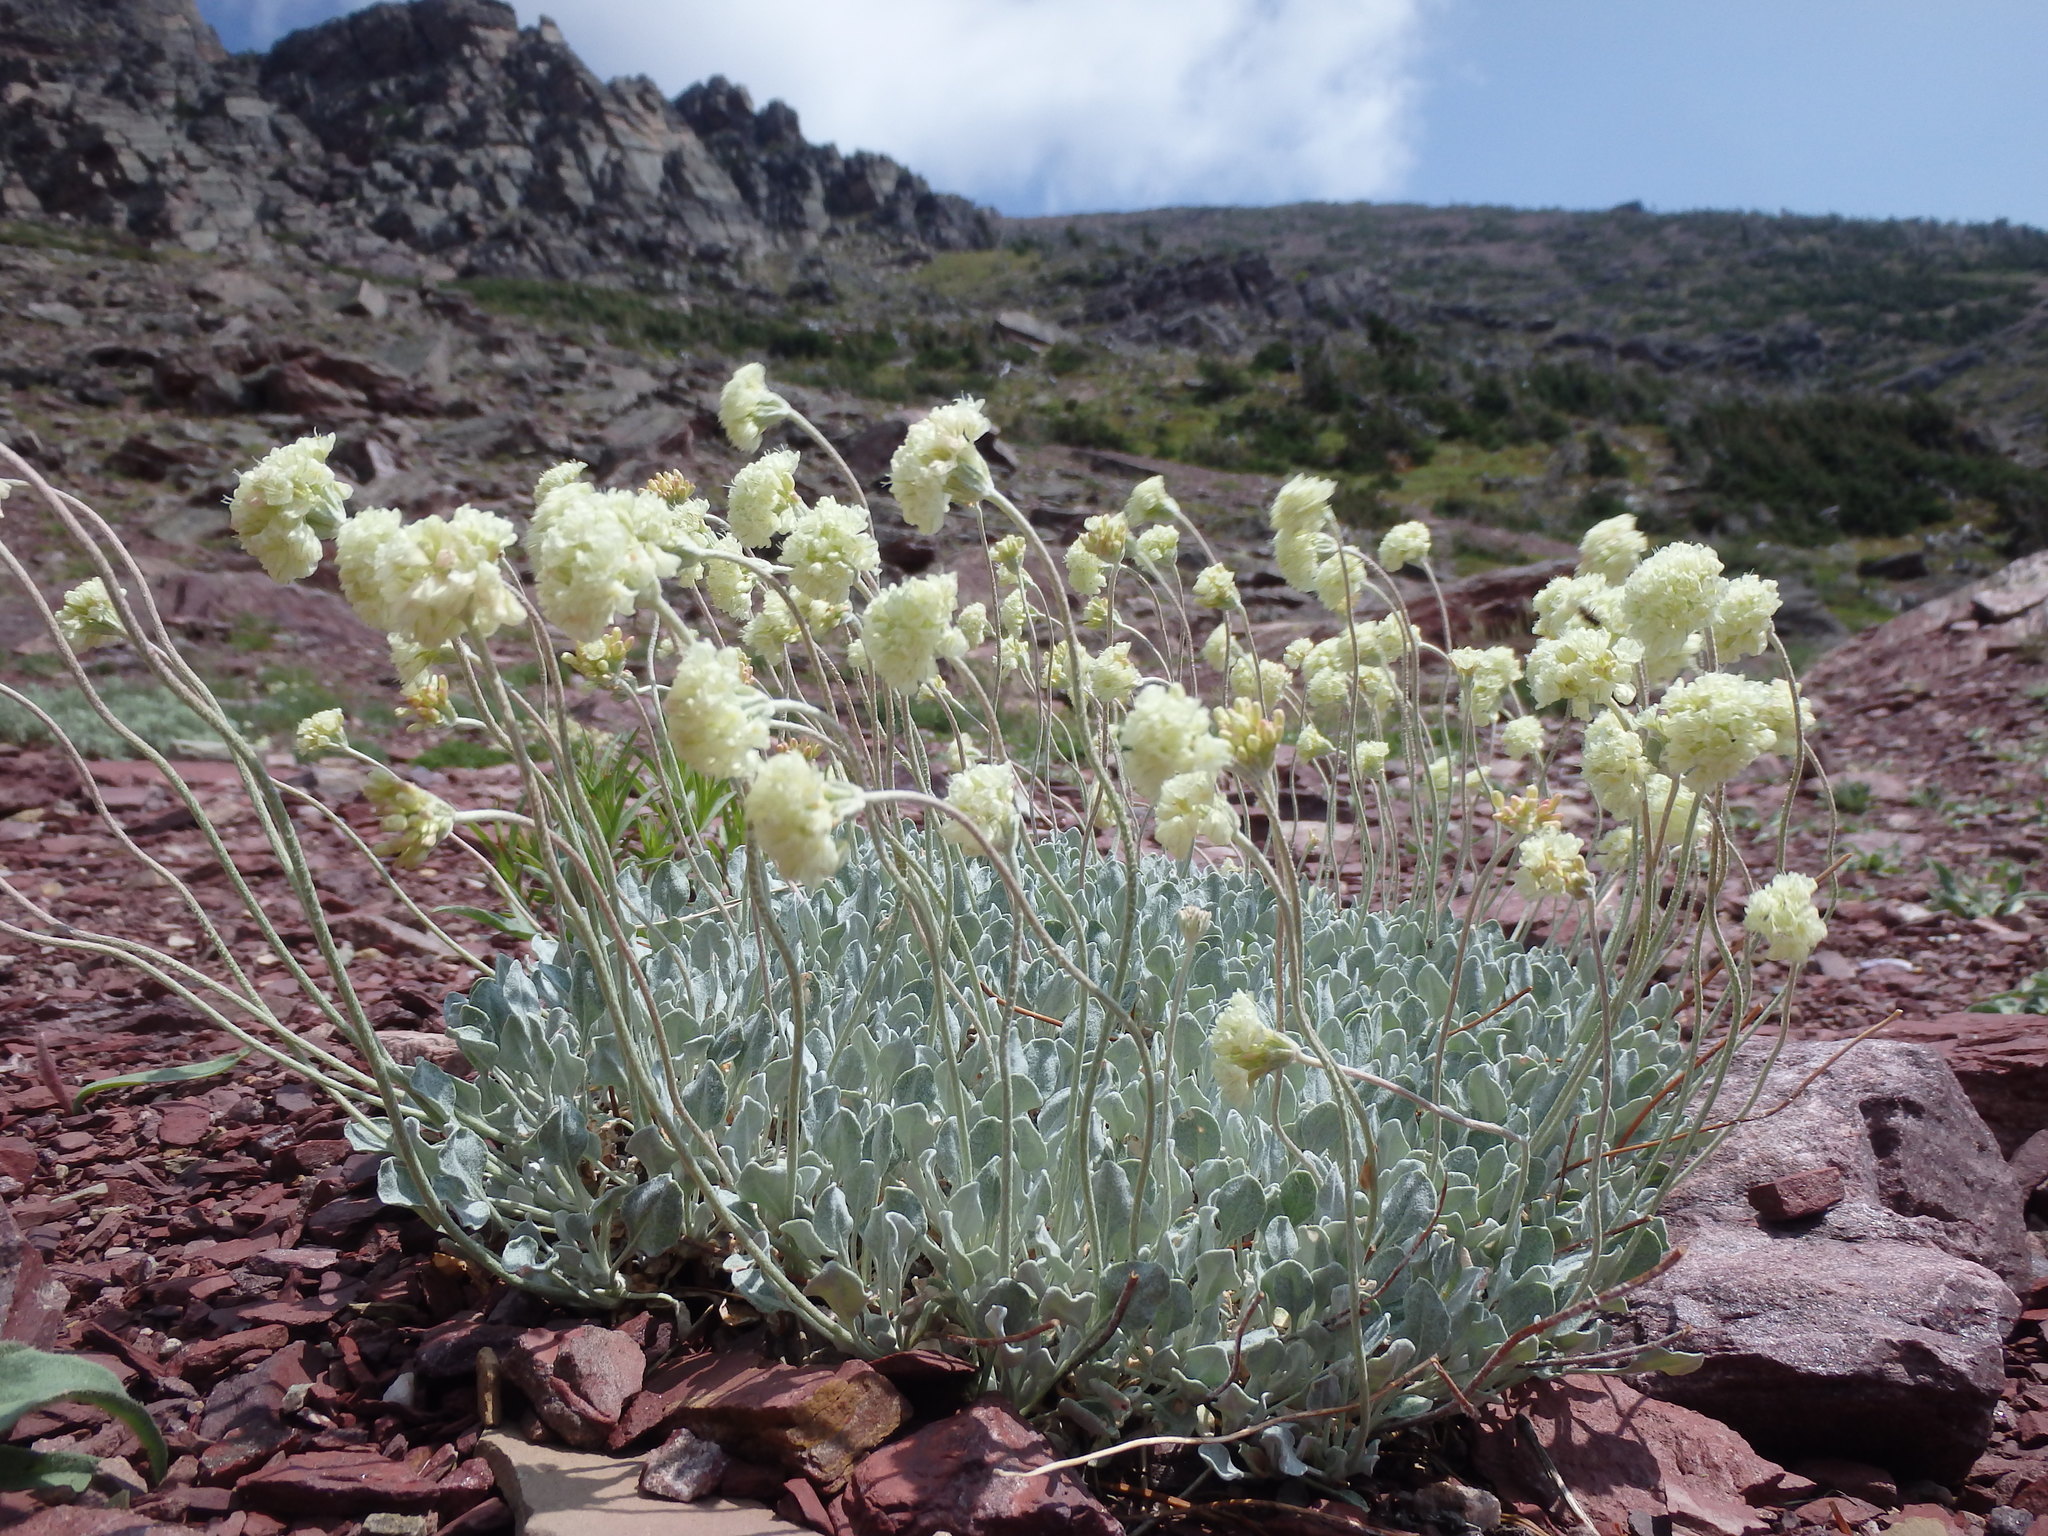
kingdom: Plantae
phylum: Tracheophyta
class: Magnoliopsida
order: Caryophyllales
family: Polygonaceae
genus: Eriogonum
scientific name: Eriogonum ovalifolium
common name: Cushion buckwheat
